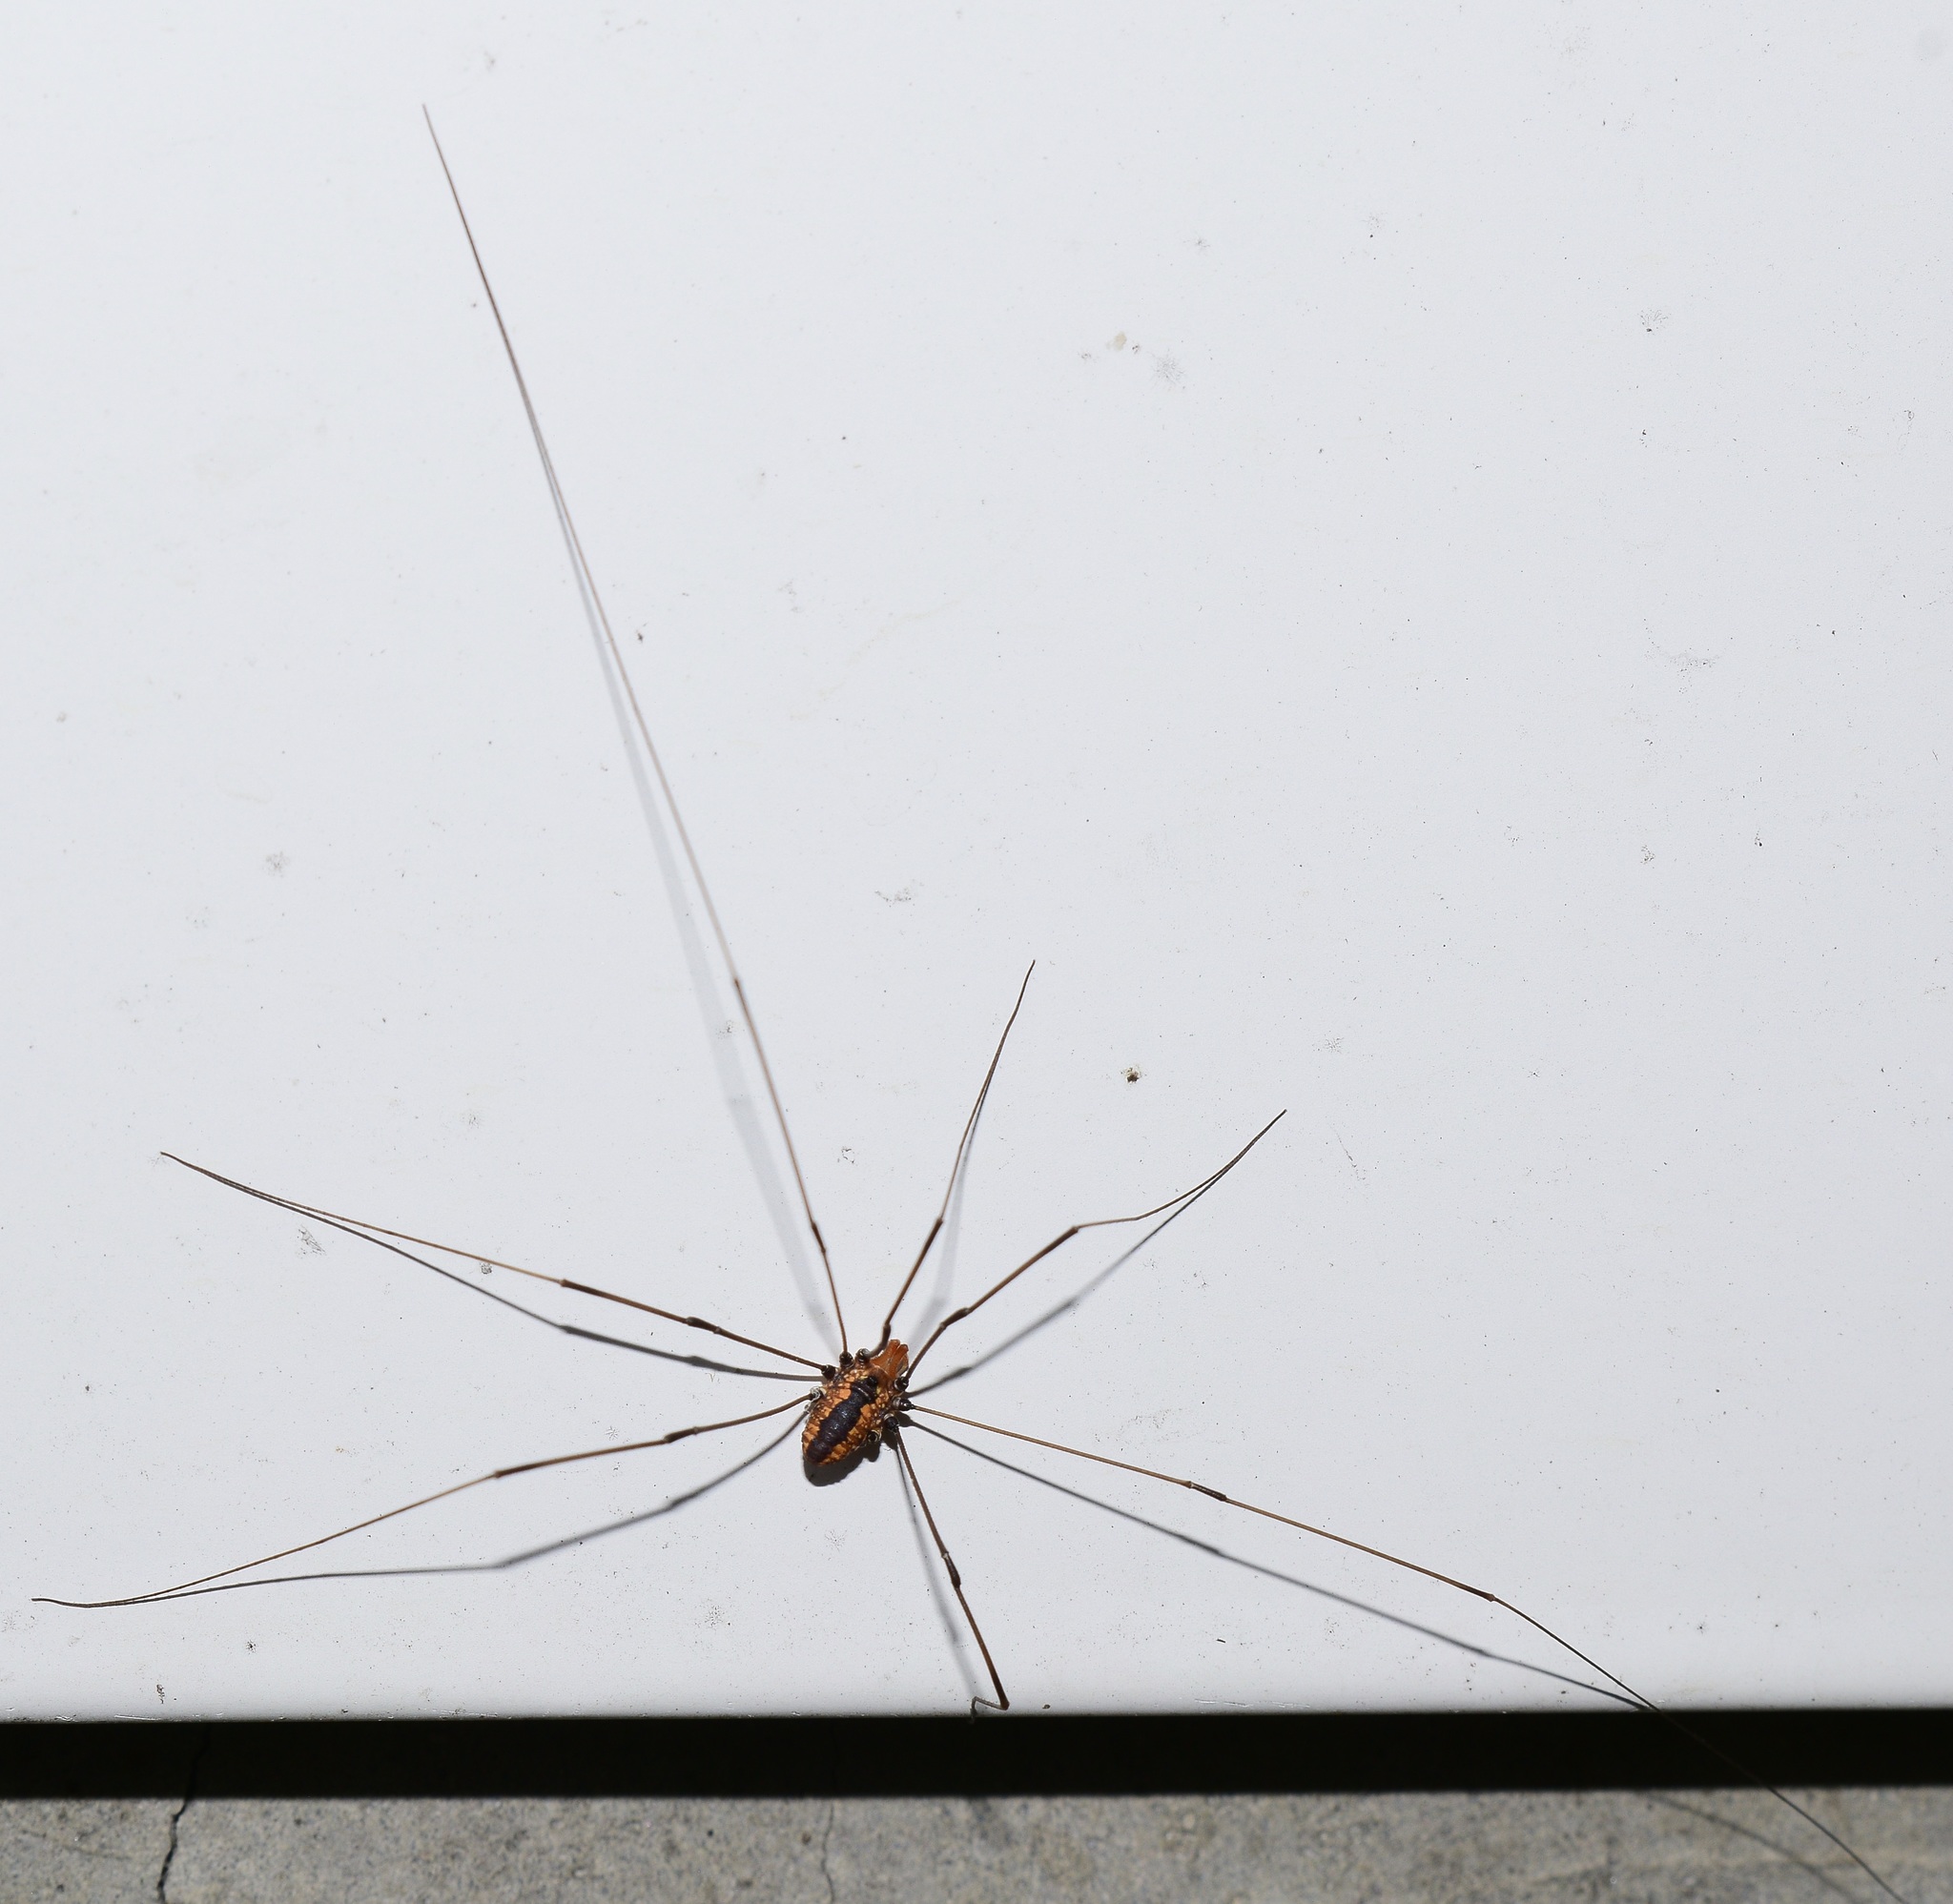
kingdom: Animalia
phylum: Arthropoda
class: Arachnida
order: Opiliones
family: Sclerosomatidae
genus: Leiobunum
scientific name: Leiobunum vittatum
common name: Eastern harvestman
